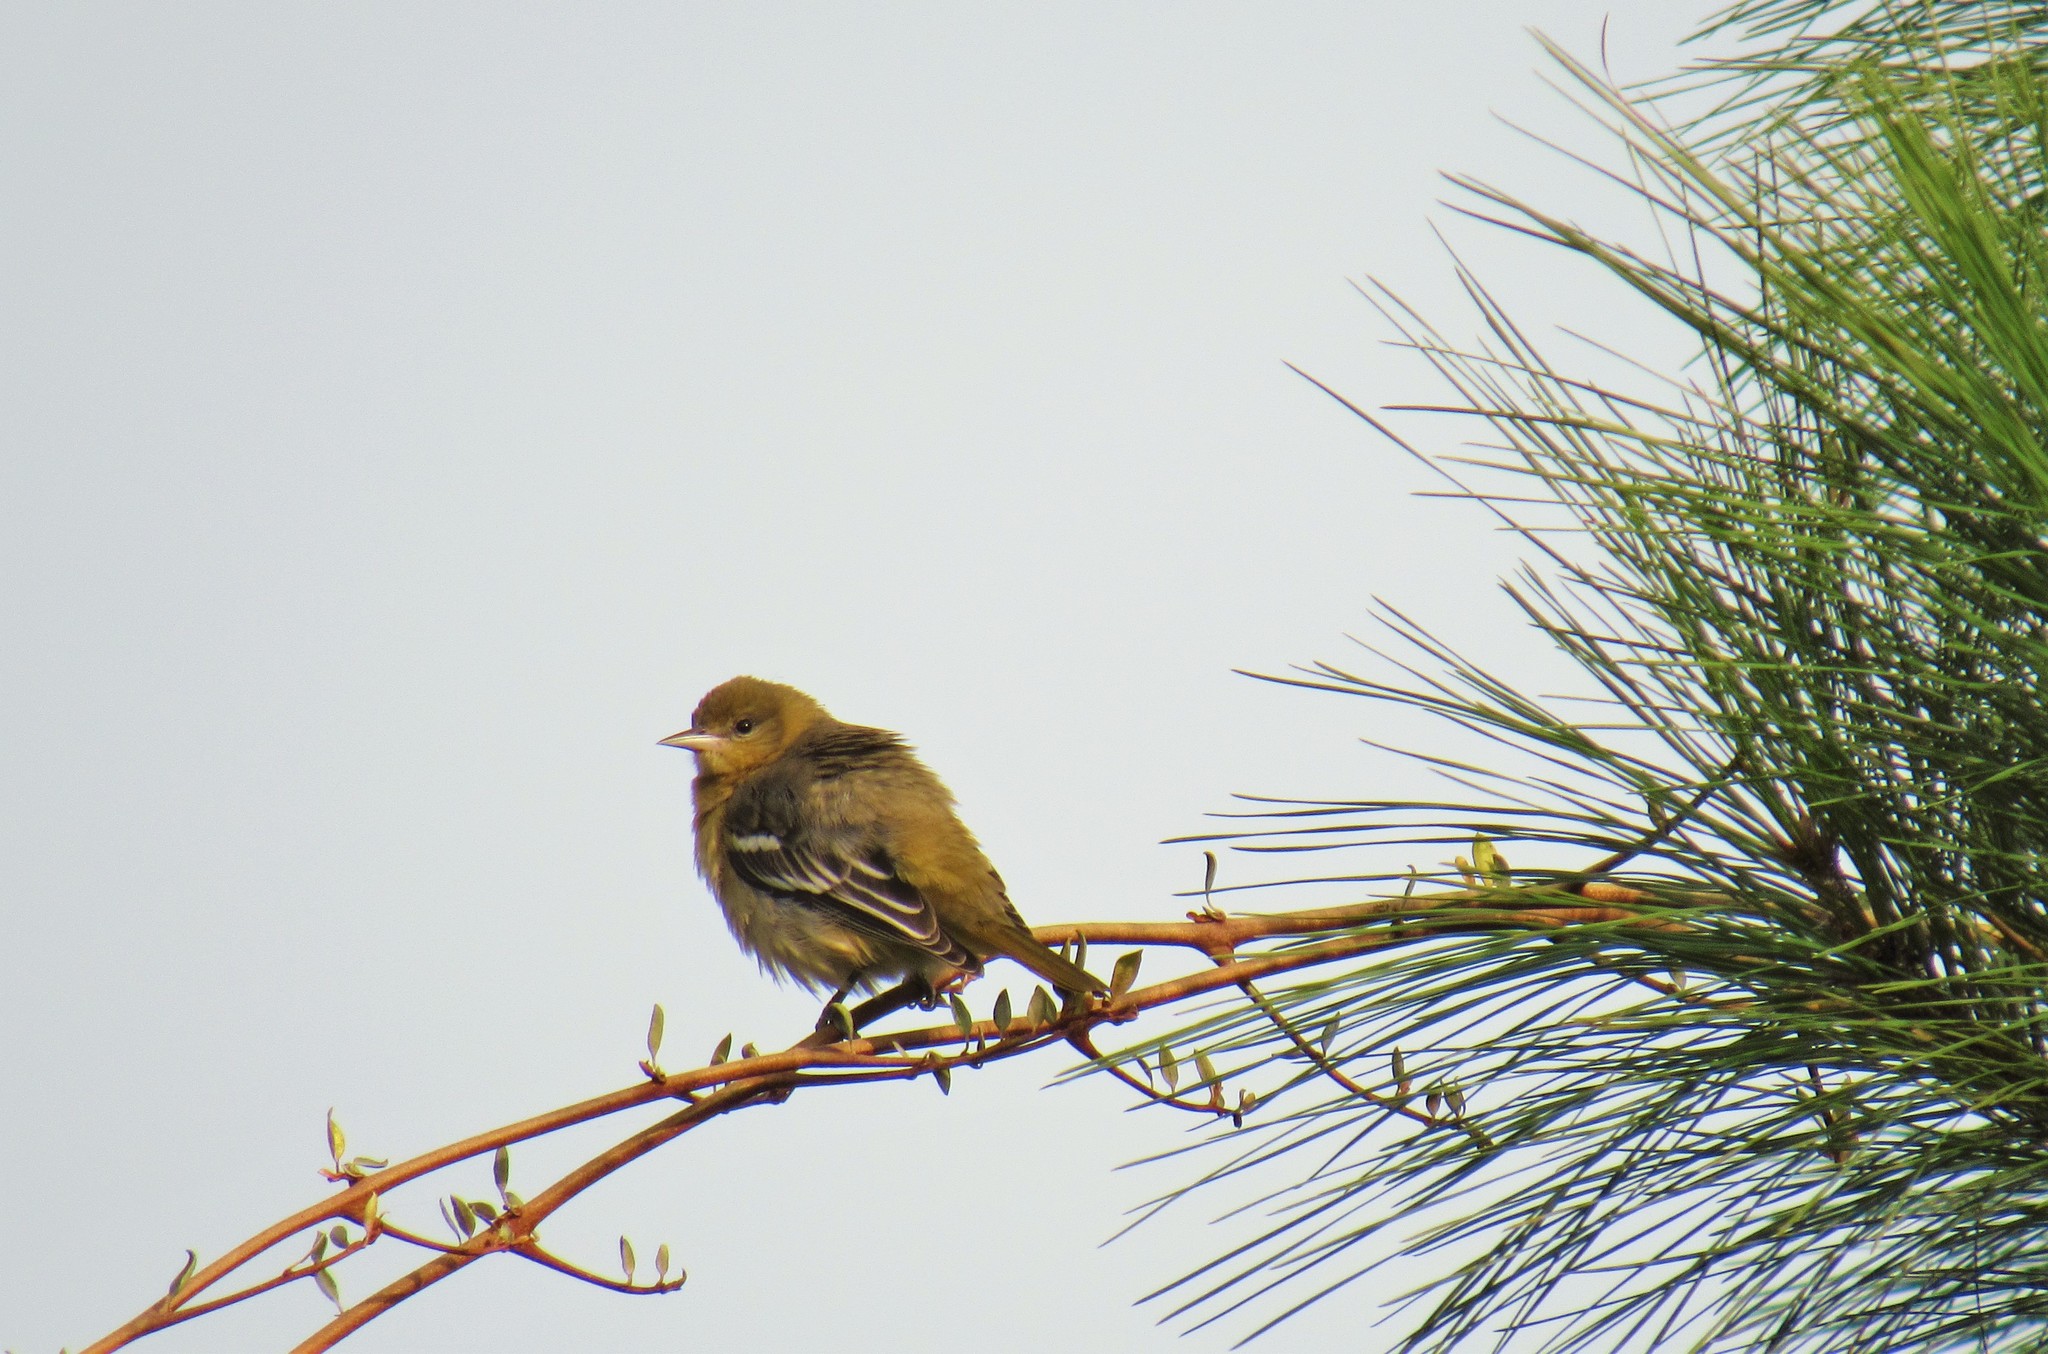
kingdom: Animalia
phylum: Chordata
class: Aves
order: Passeriformes
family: Icteridae
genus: Icterus
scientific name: Icterus spurius
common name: Orchard oriole
